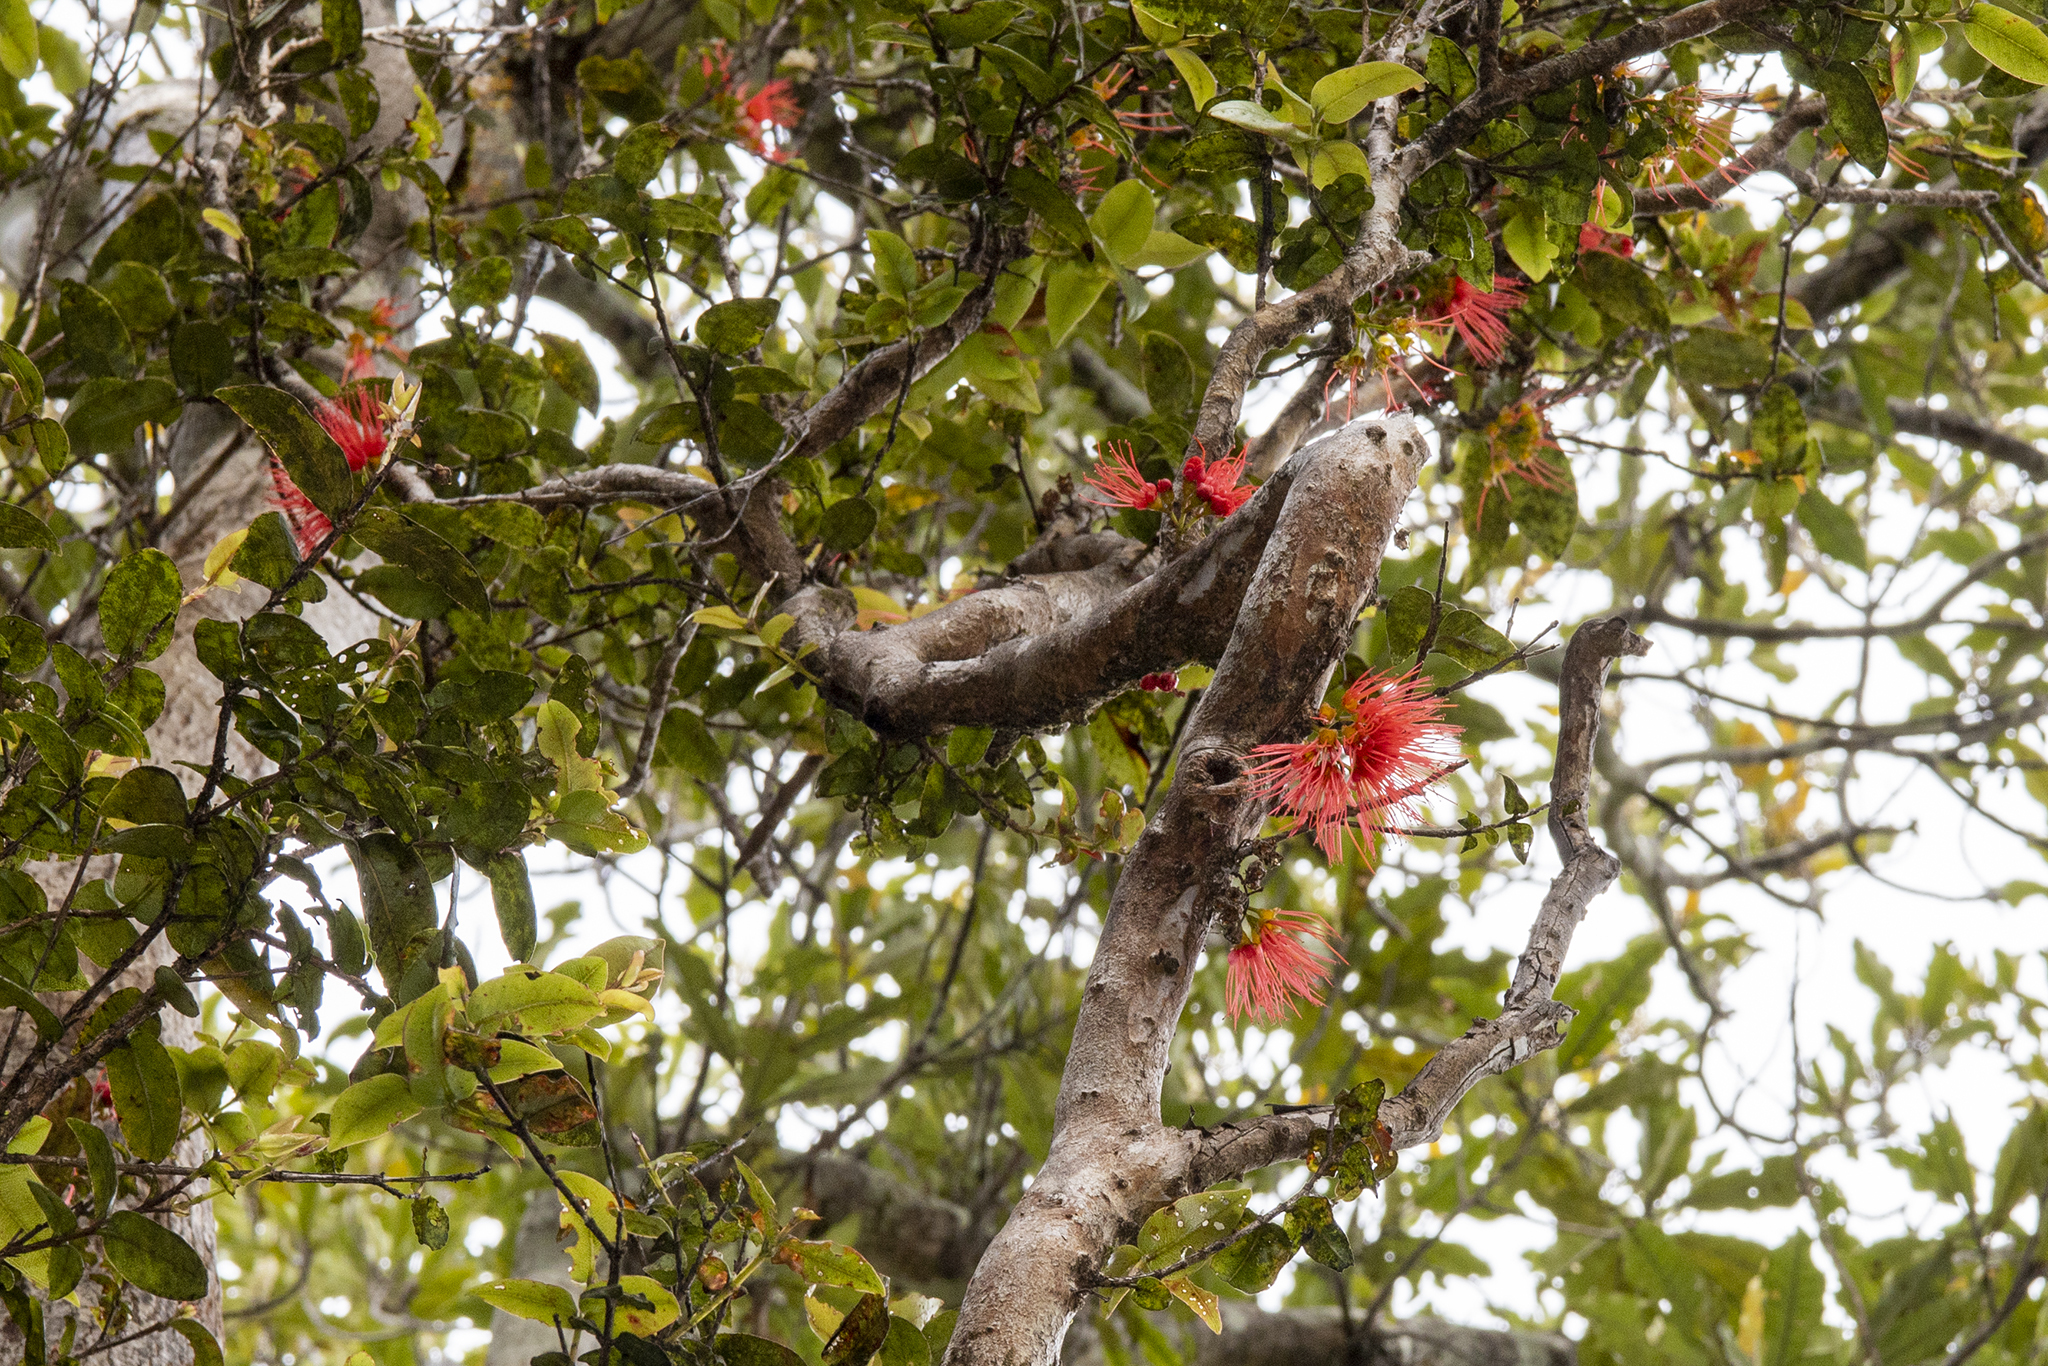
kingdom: Plantae
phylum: Tracheophyta
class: Magnoliopsida
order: Myrtales
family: Myrtaceae
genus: Metrosideros
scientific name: Metrosideros parkinsonii
